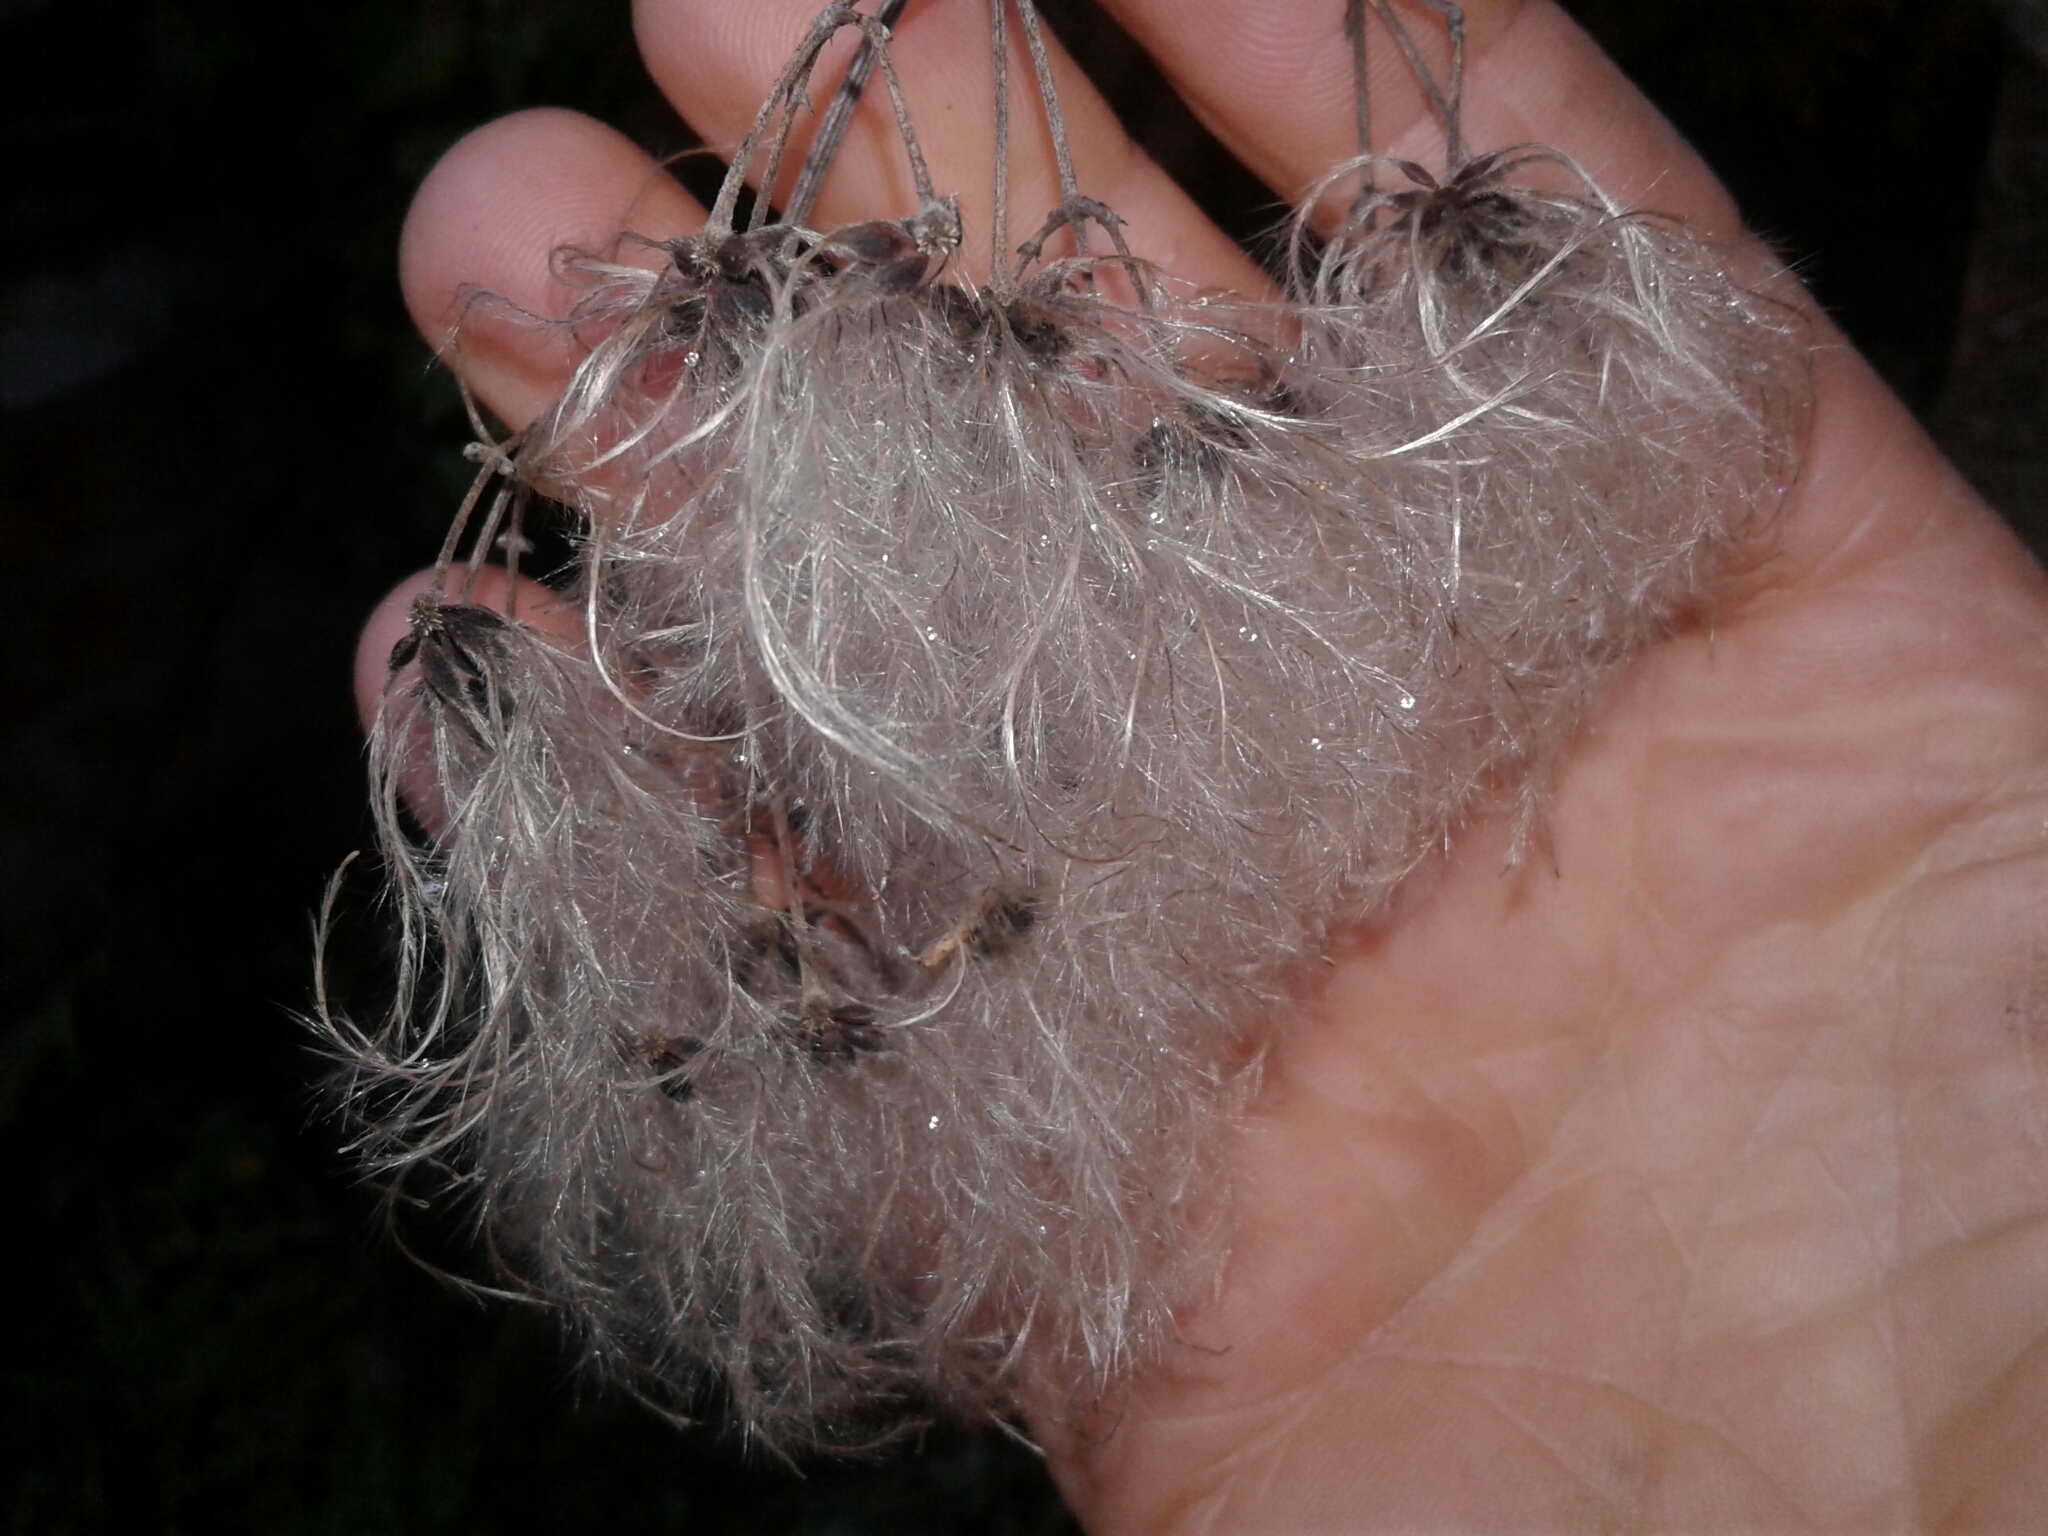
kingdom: Plantae
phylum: Tracheophyta
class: Magnoliopsida
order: Ranunculales
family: Ranunculaceae
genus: Clematis
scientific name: Clematis montana
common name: Himalayan clematis
